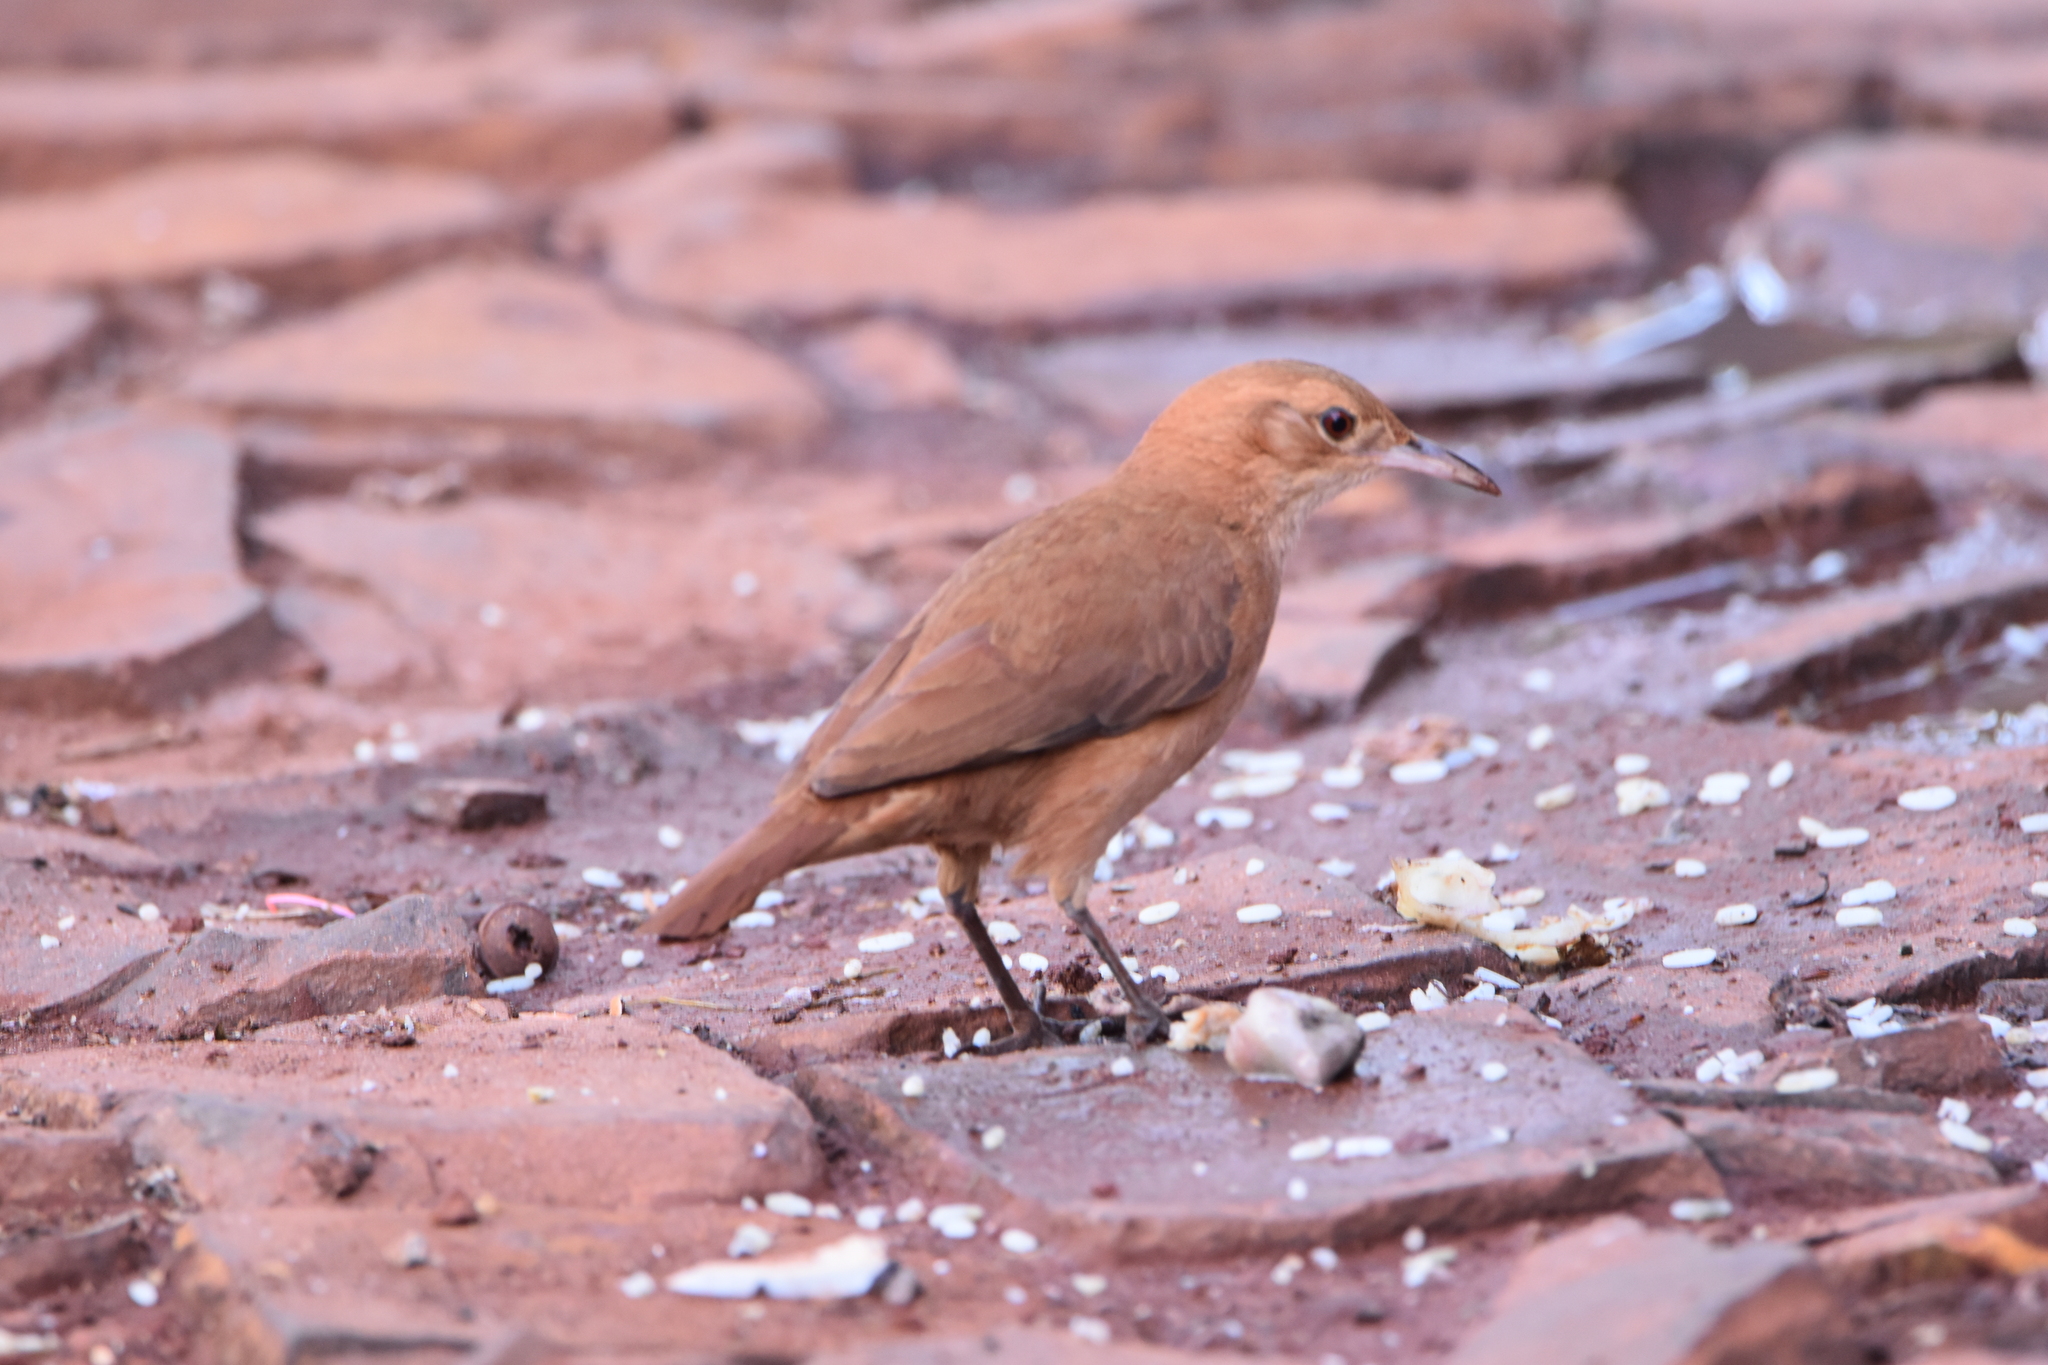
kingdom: Animalia
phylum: Chordata
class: Aves
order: Passeriformes
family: Furnariidae
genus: Furnarius
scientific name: Furnarius rufus
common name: Rufous hornero
